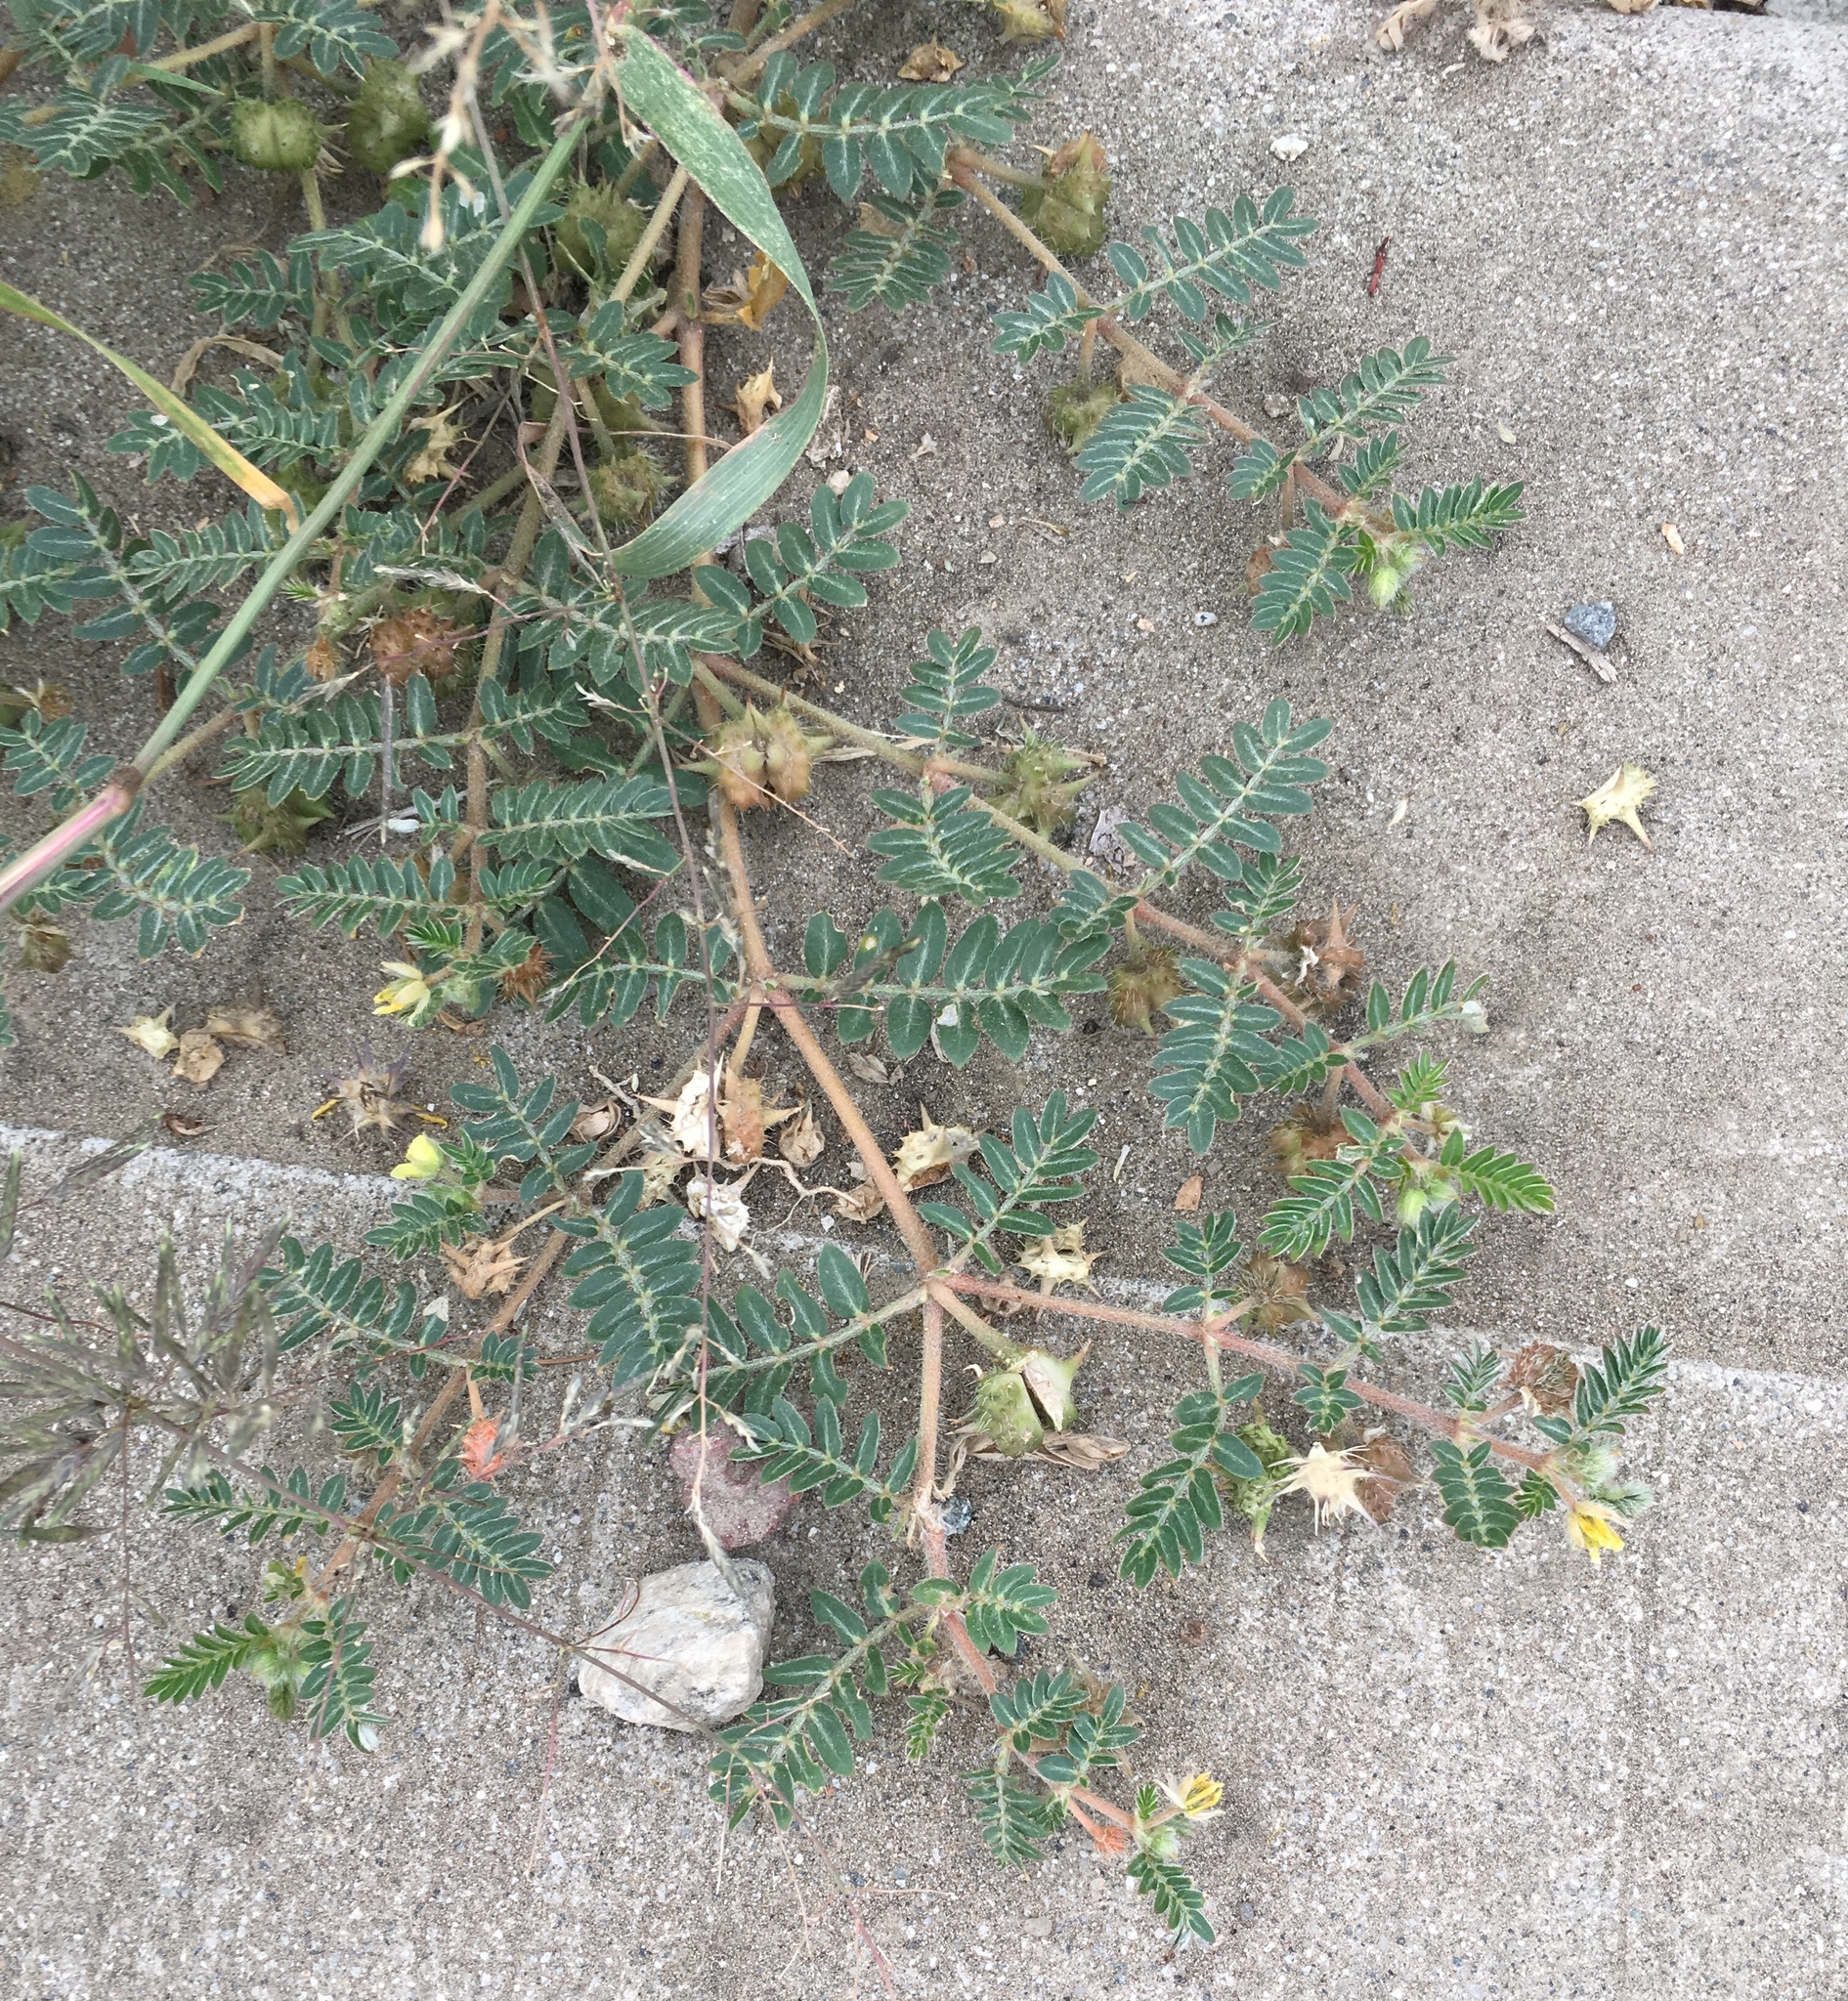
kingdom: Plantae
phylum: Tracheophyta
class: Magnoliopsida
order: Zygophyllales
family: Zygophyllaceae
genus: Tribulus
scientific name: Tribulus terrestris
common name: Puncturevine
